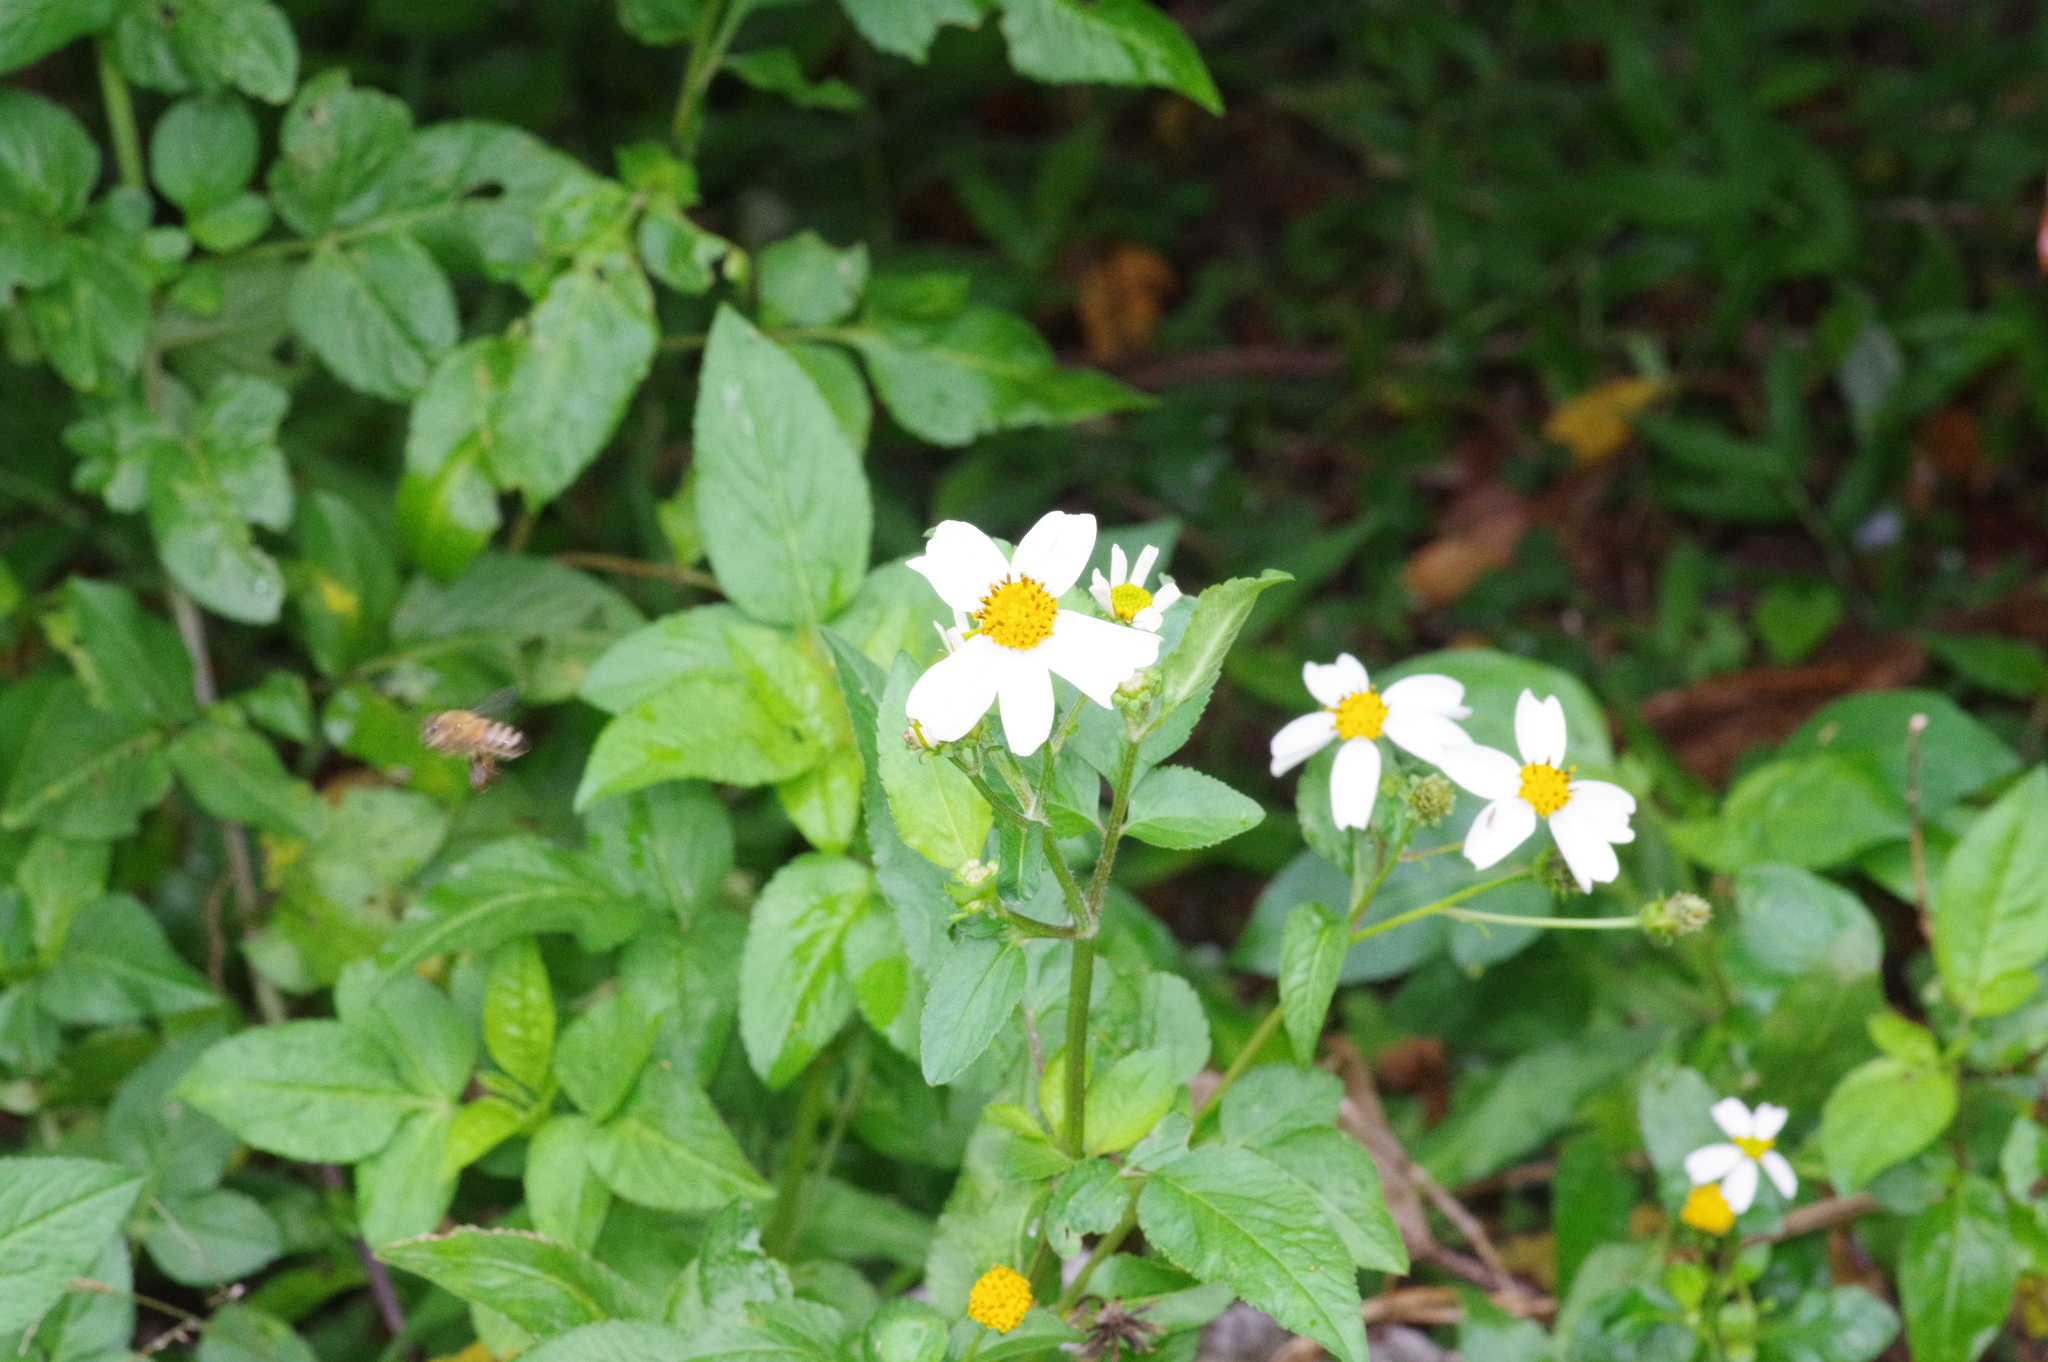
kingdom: Animalia
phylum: Arthropoda
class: Insecta
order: Hymenoptera
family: Apidae
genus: Apis
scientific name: Apis mellifera
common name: Honey bee
